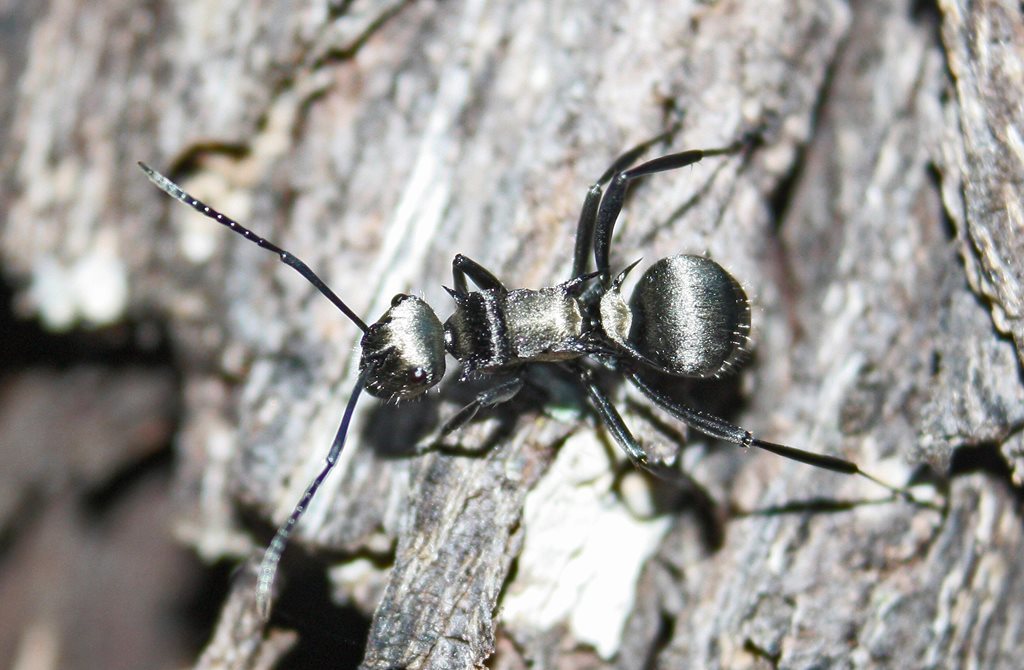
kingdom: Animalia
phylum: Arthropoda
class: Insecta
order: Hymenoptera
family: Formicidae
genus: Polyrhachis
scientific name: Polyrhachis daemeli
